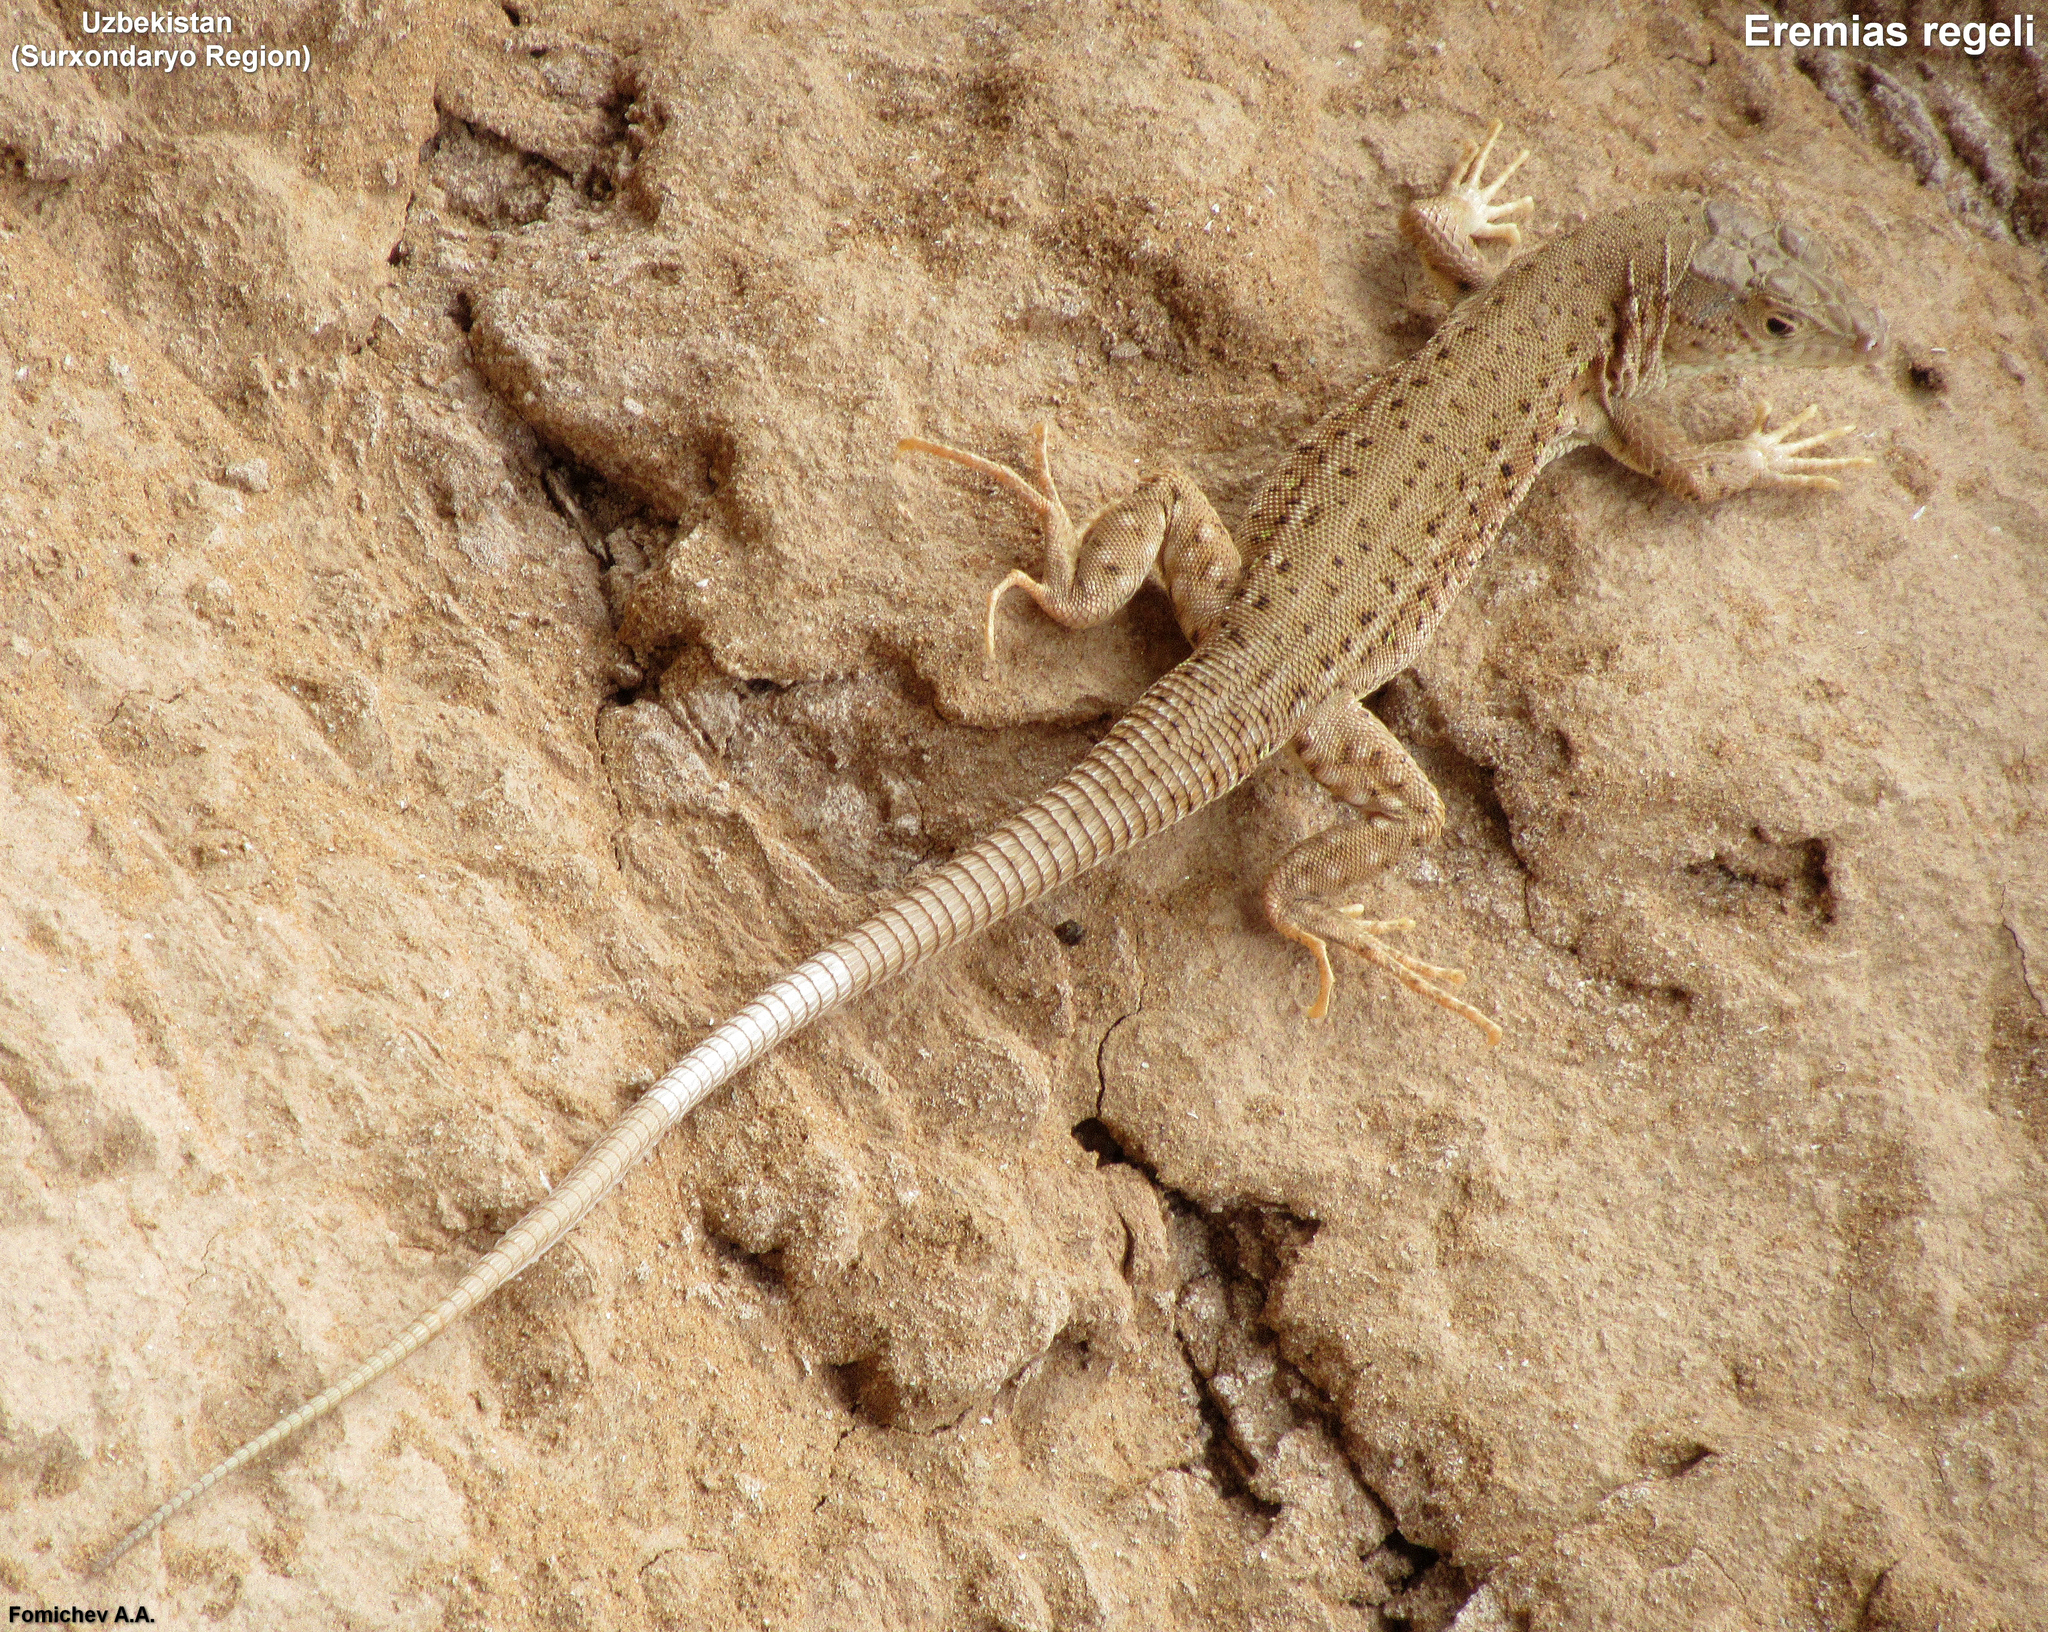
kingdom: Animalia
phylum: Chordata
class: Squamata
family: Lacertidae
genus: Eremias
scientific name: Eremias regeli
